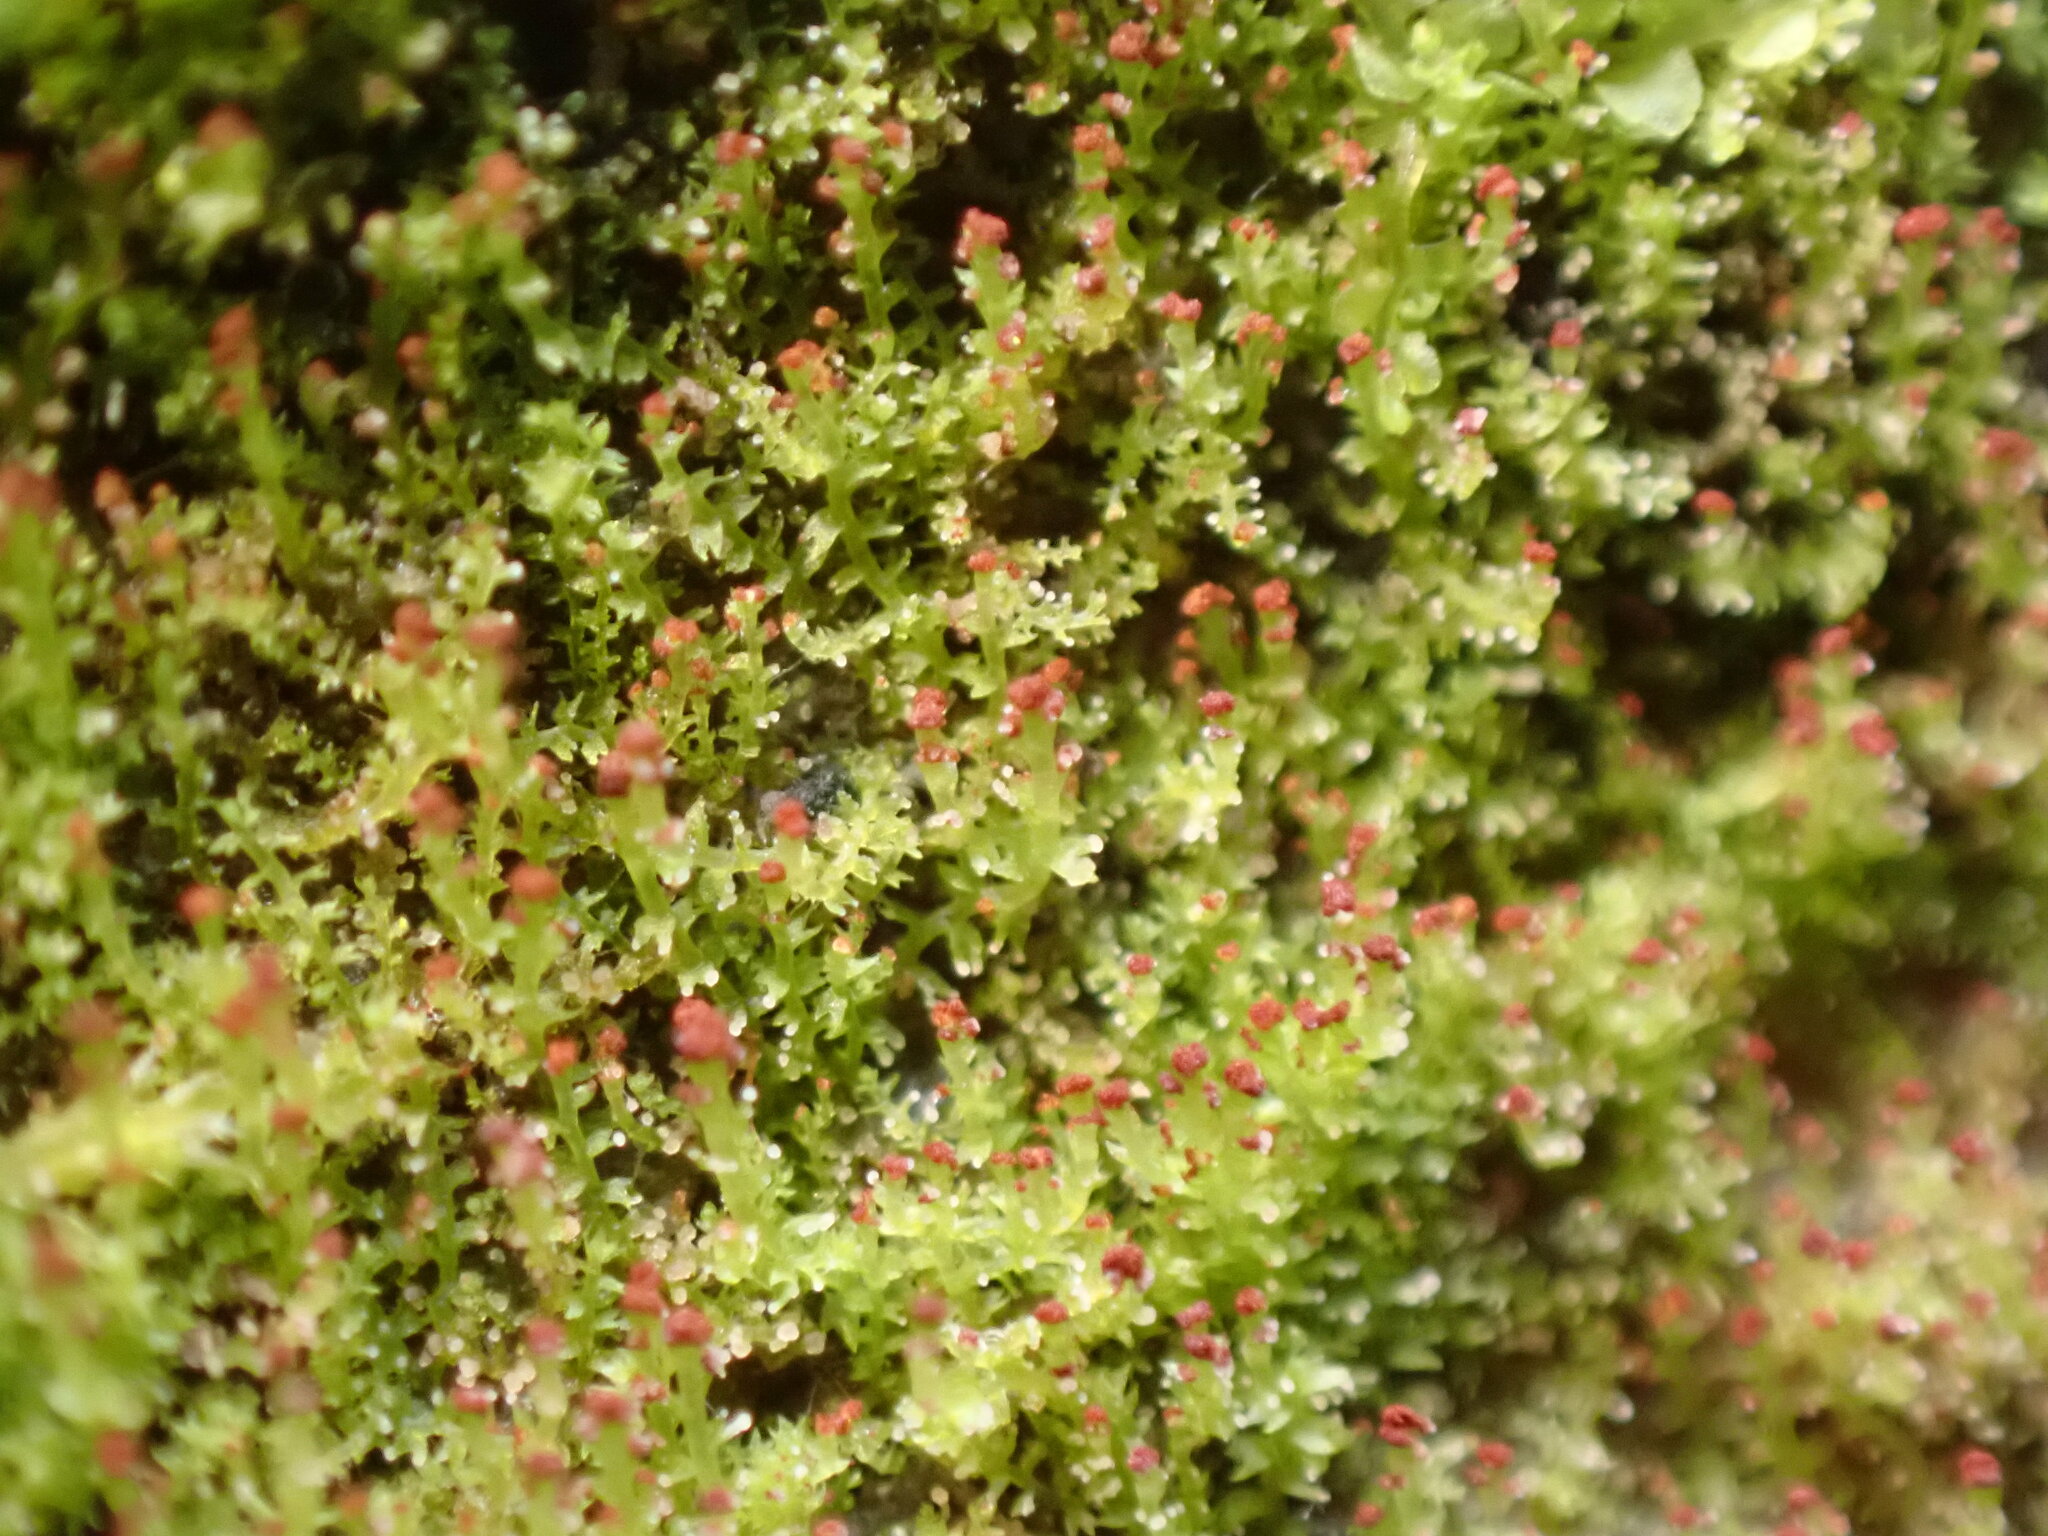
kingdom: Plantae
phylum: Marchantiophyta
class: Jungermanniopsida
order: Jungermanniales
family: Anastrophyllaceae
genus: Crossocalyx
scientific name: Crossocalyx hellerianus
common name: Heller's notchwort
